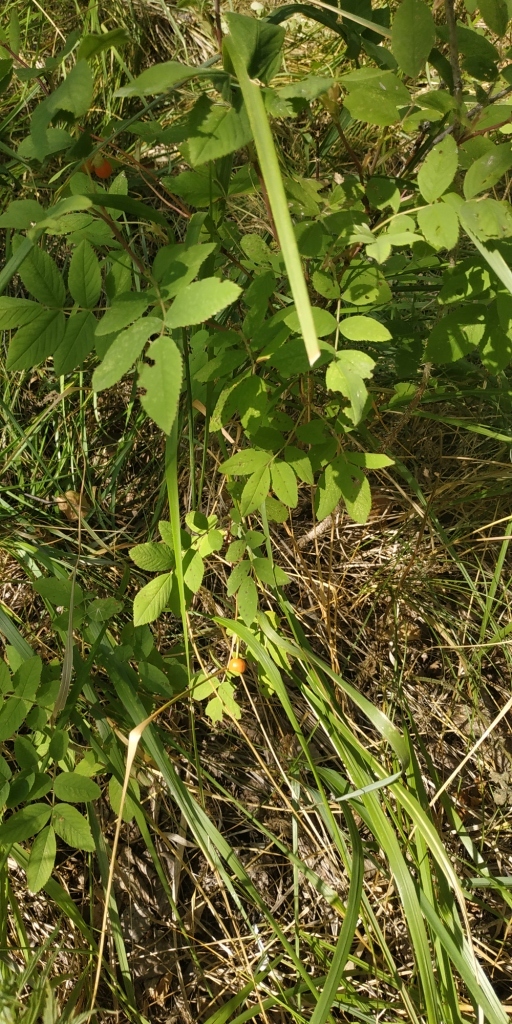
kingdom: Plantae
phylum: Tracheophyta
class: Magnoliopsida
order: Rosales
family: Rosaceae
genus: Rosa
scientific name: Rosa majalis
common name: Cinnamon rose
